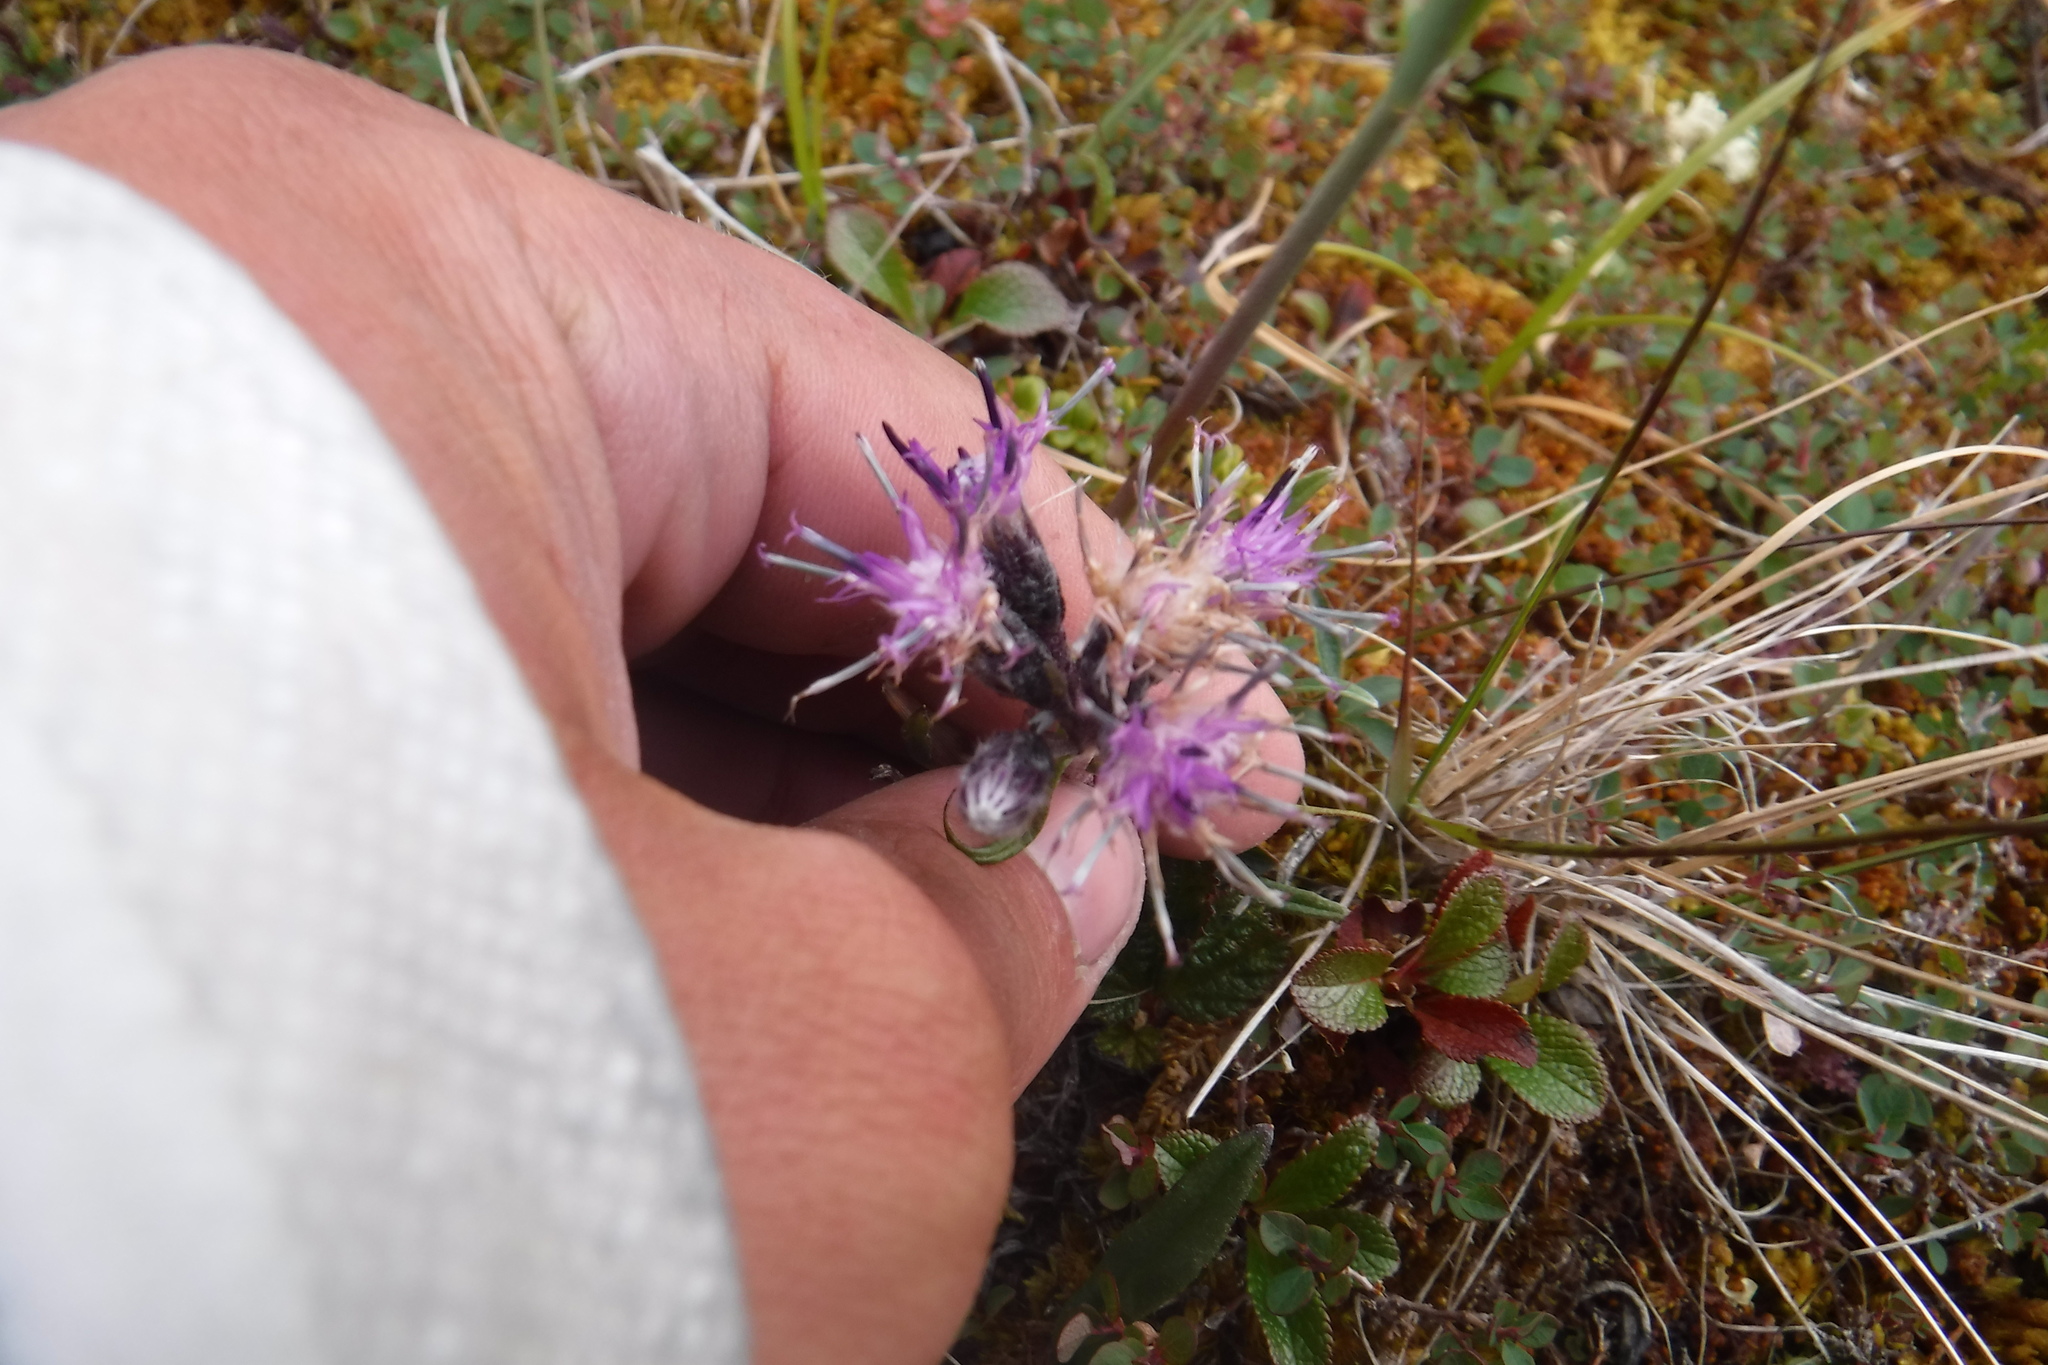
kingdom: Plantae
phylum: Tracheophyta
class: Magnoliopsida
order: Asterales
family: Asteraceae
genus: Saussurea
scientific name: Saussurea angustifolia
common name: Common saussurea
